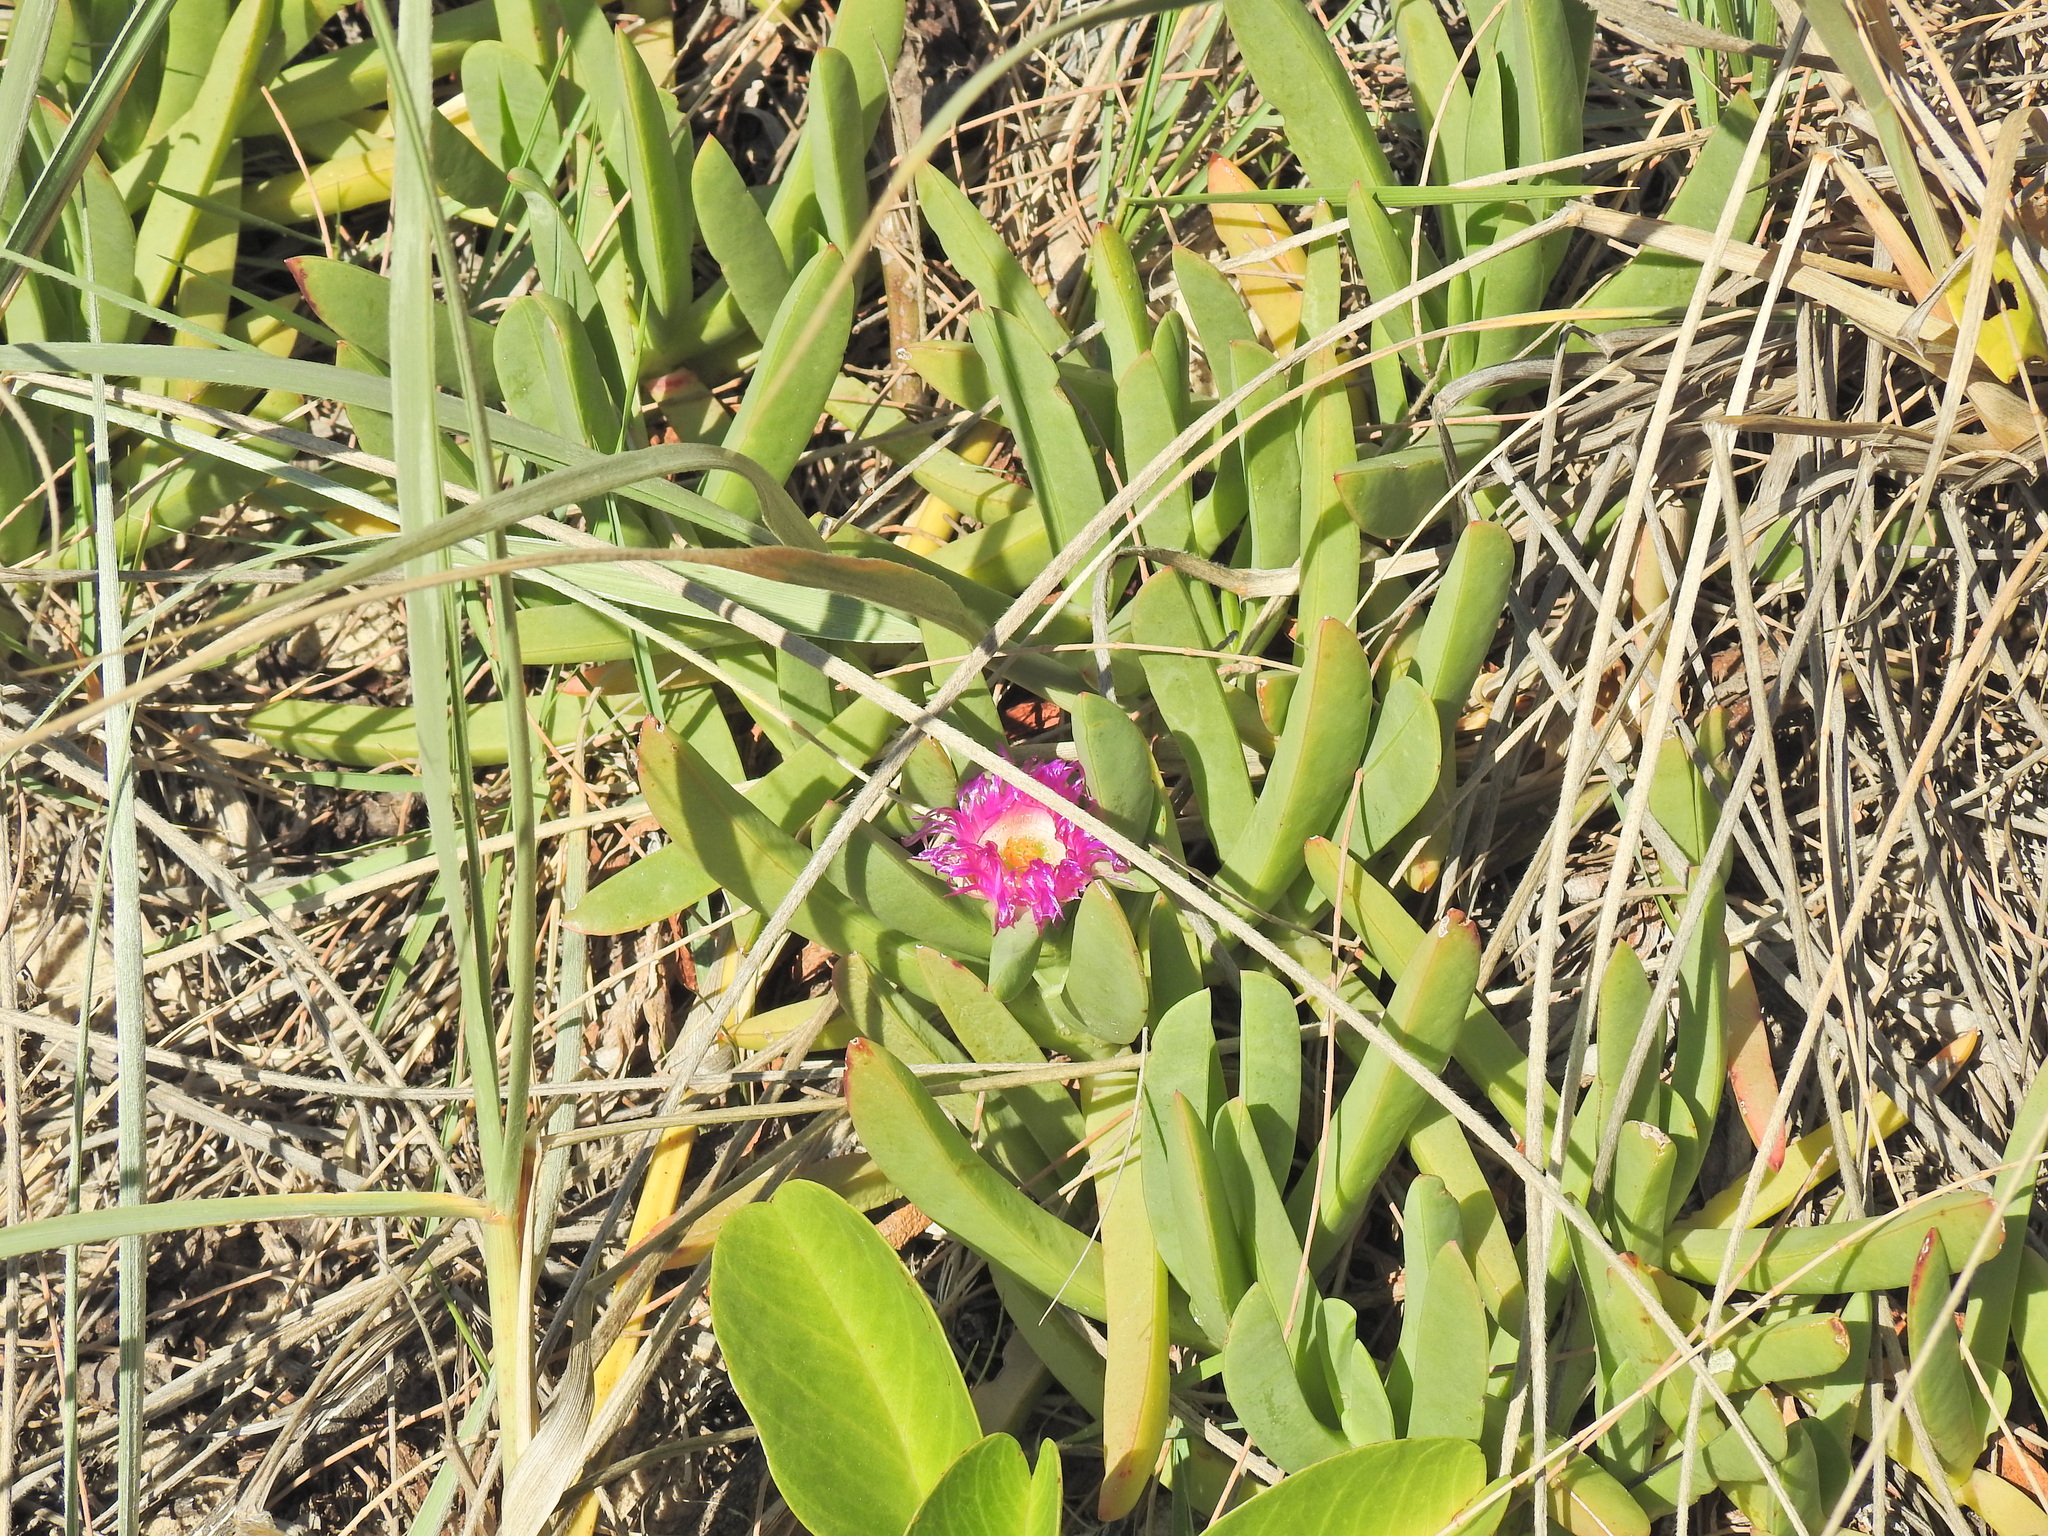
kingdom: Plantae
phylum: Tracheophyta
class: Magnoliopsida
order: Caryophyllales
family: Aizoaceae
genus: Carpobrotus
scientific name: Carpobrotus glaucescens
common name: Angular sea-fig
